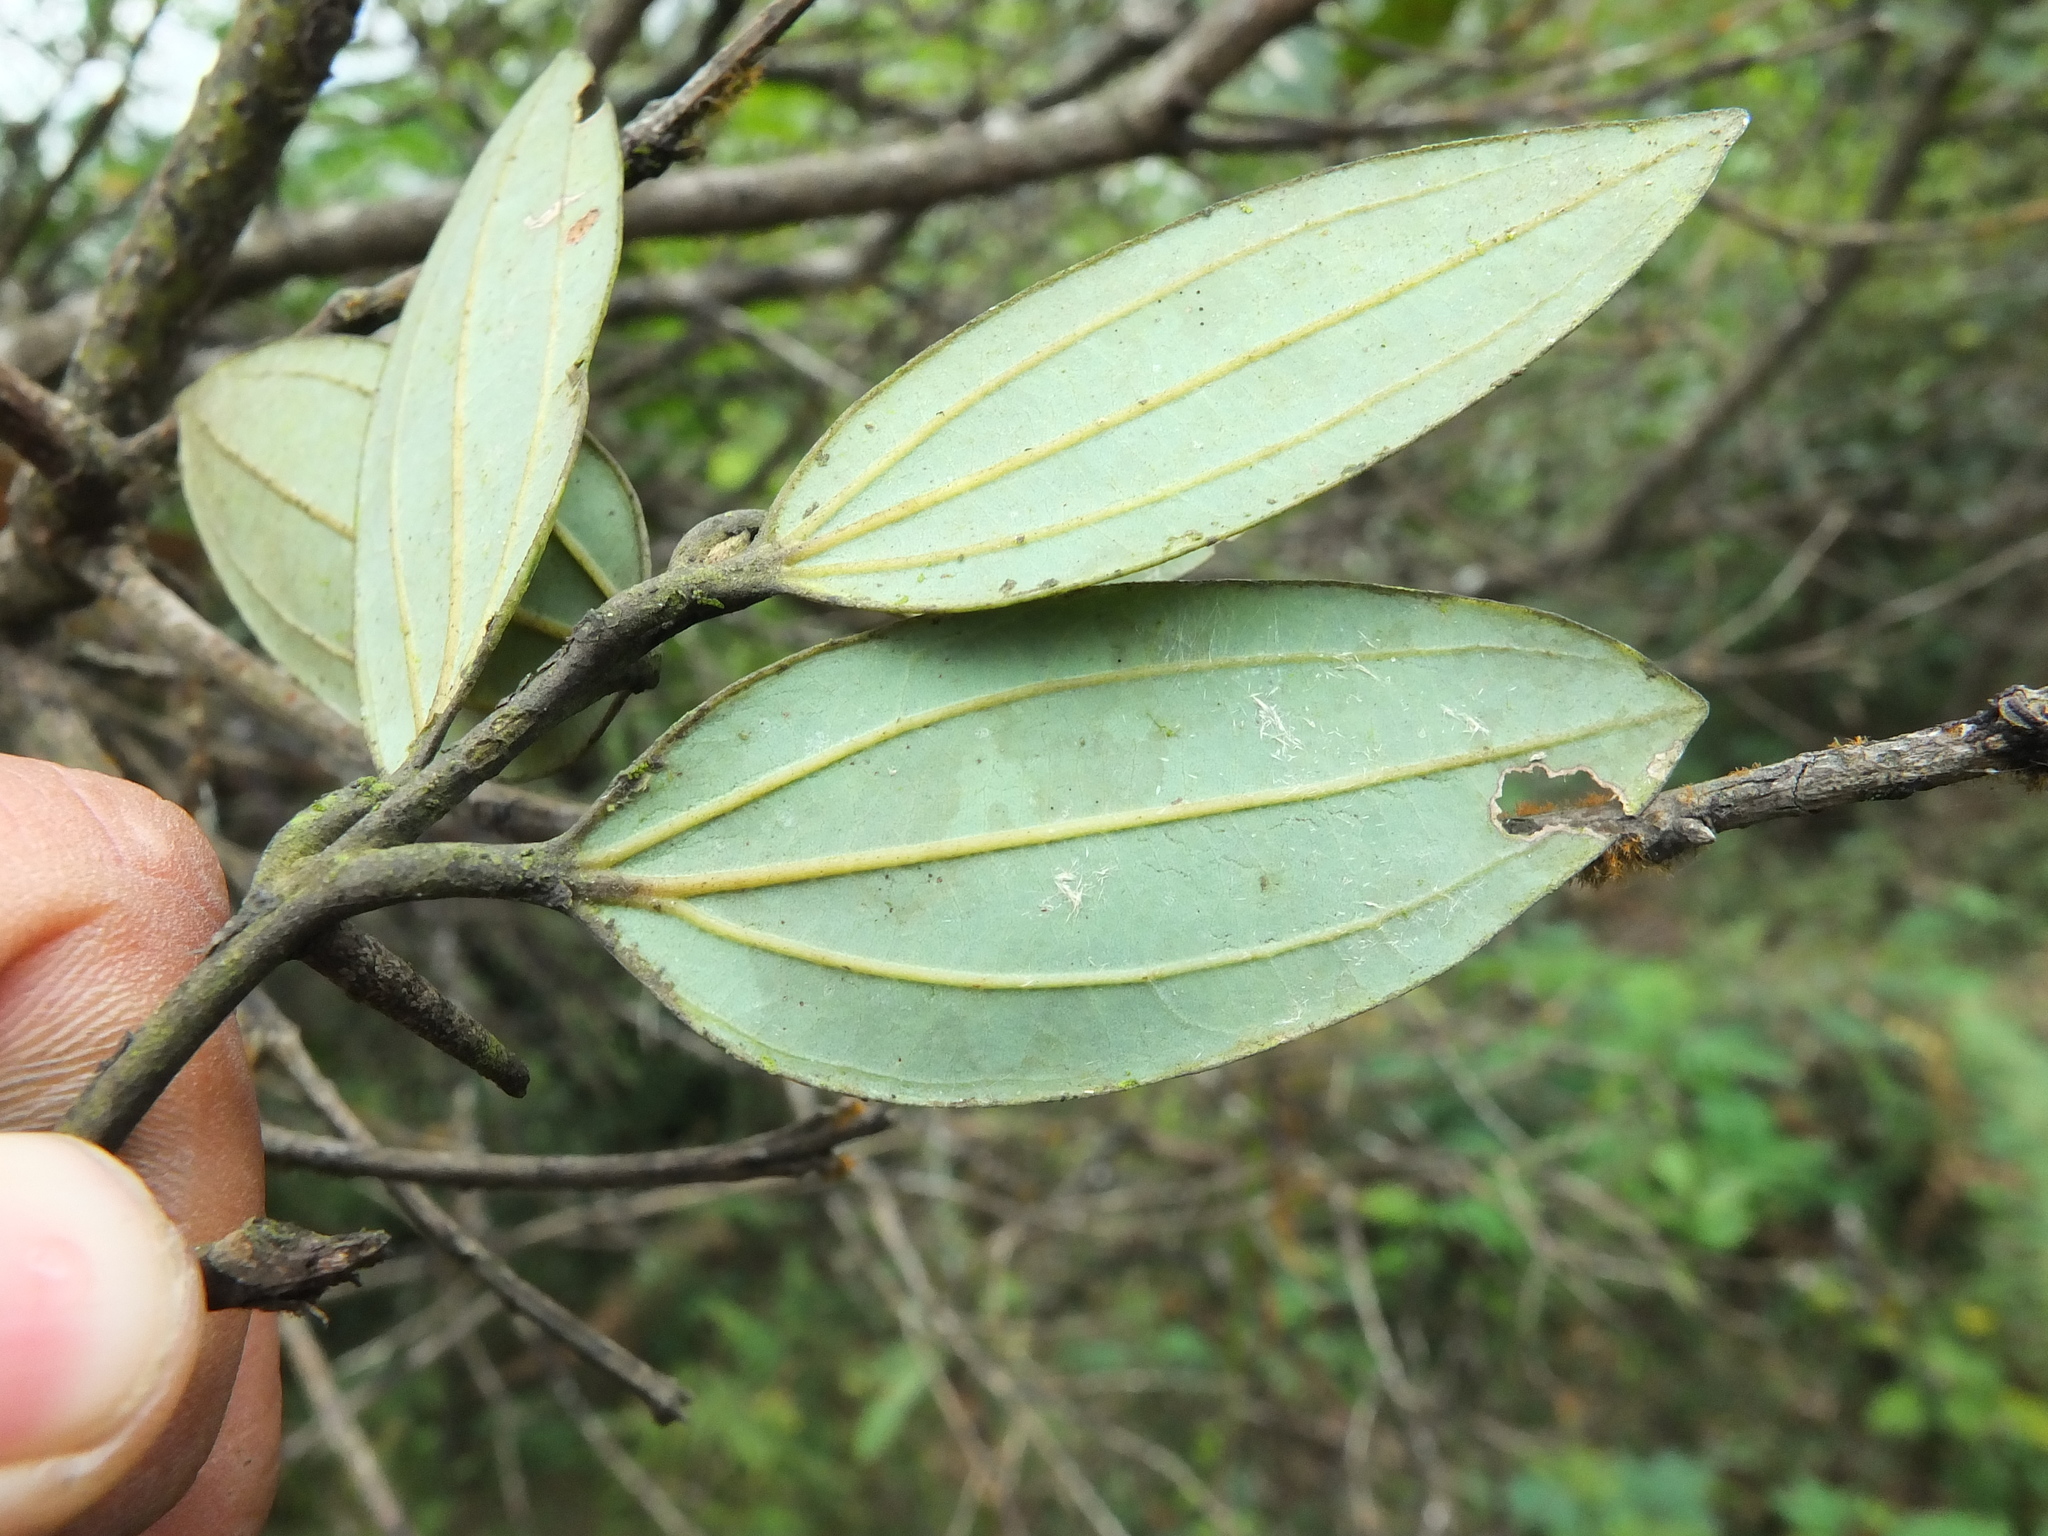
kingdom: Plantae
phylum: Tracheophyta
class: Magnoliopsida
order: Laurales
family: Lauraceae
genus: Cinnamomum
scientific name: Cinnamomum sulphuratum
